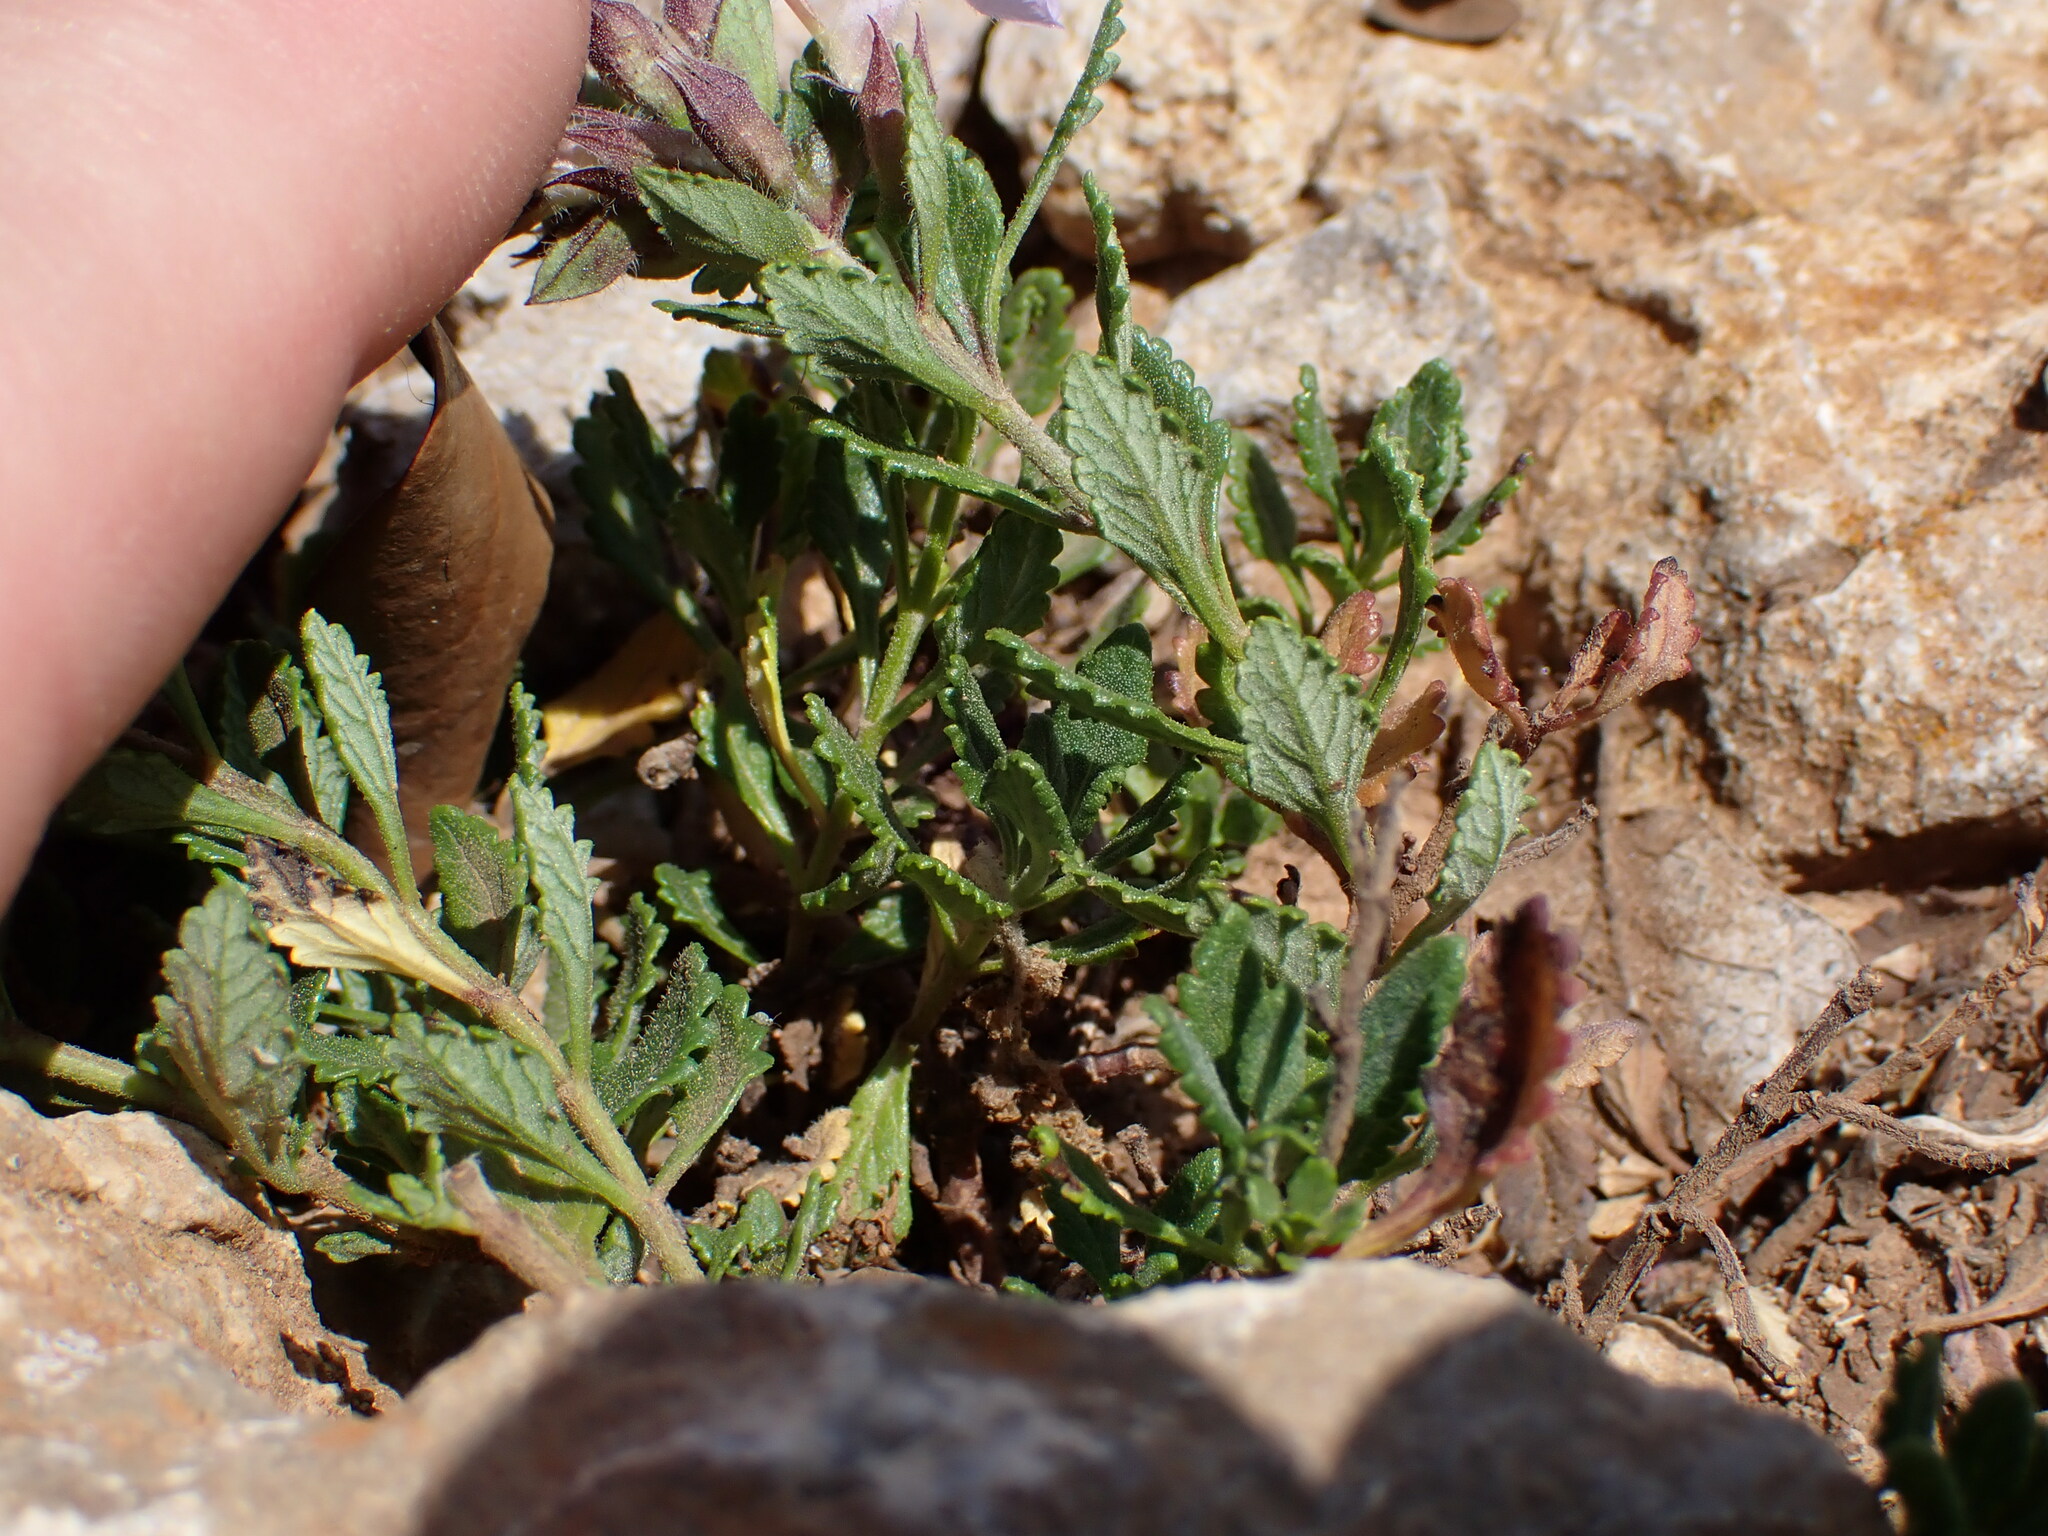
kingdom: Plantae
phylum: Tracheophyta
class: Magnoliopsida
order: Lamiales
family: Lamiaceae
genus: Teucrium
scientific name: Teucrium chamaedrys
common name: Wall germander
